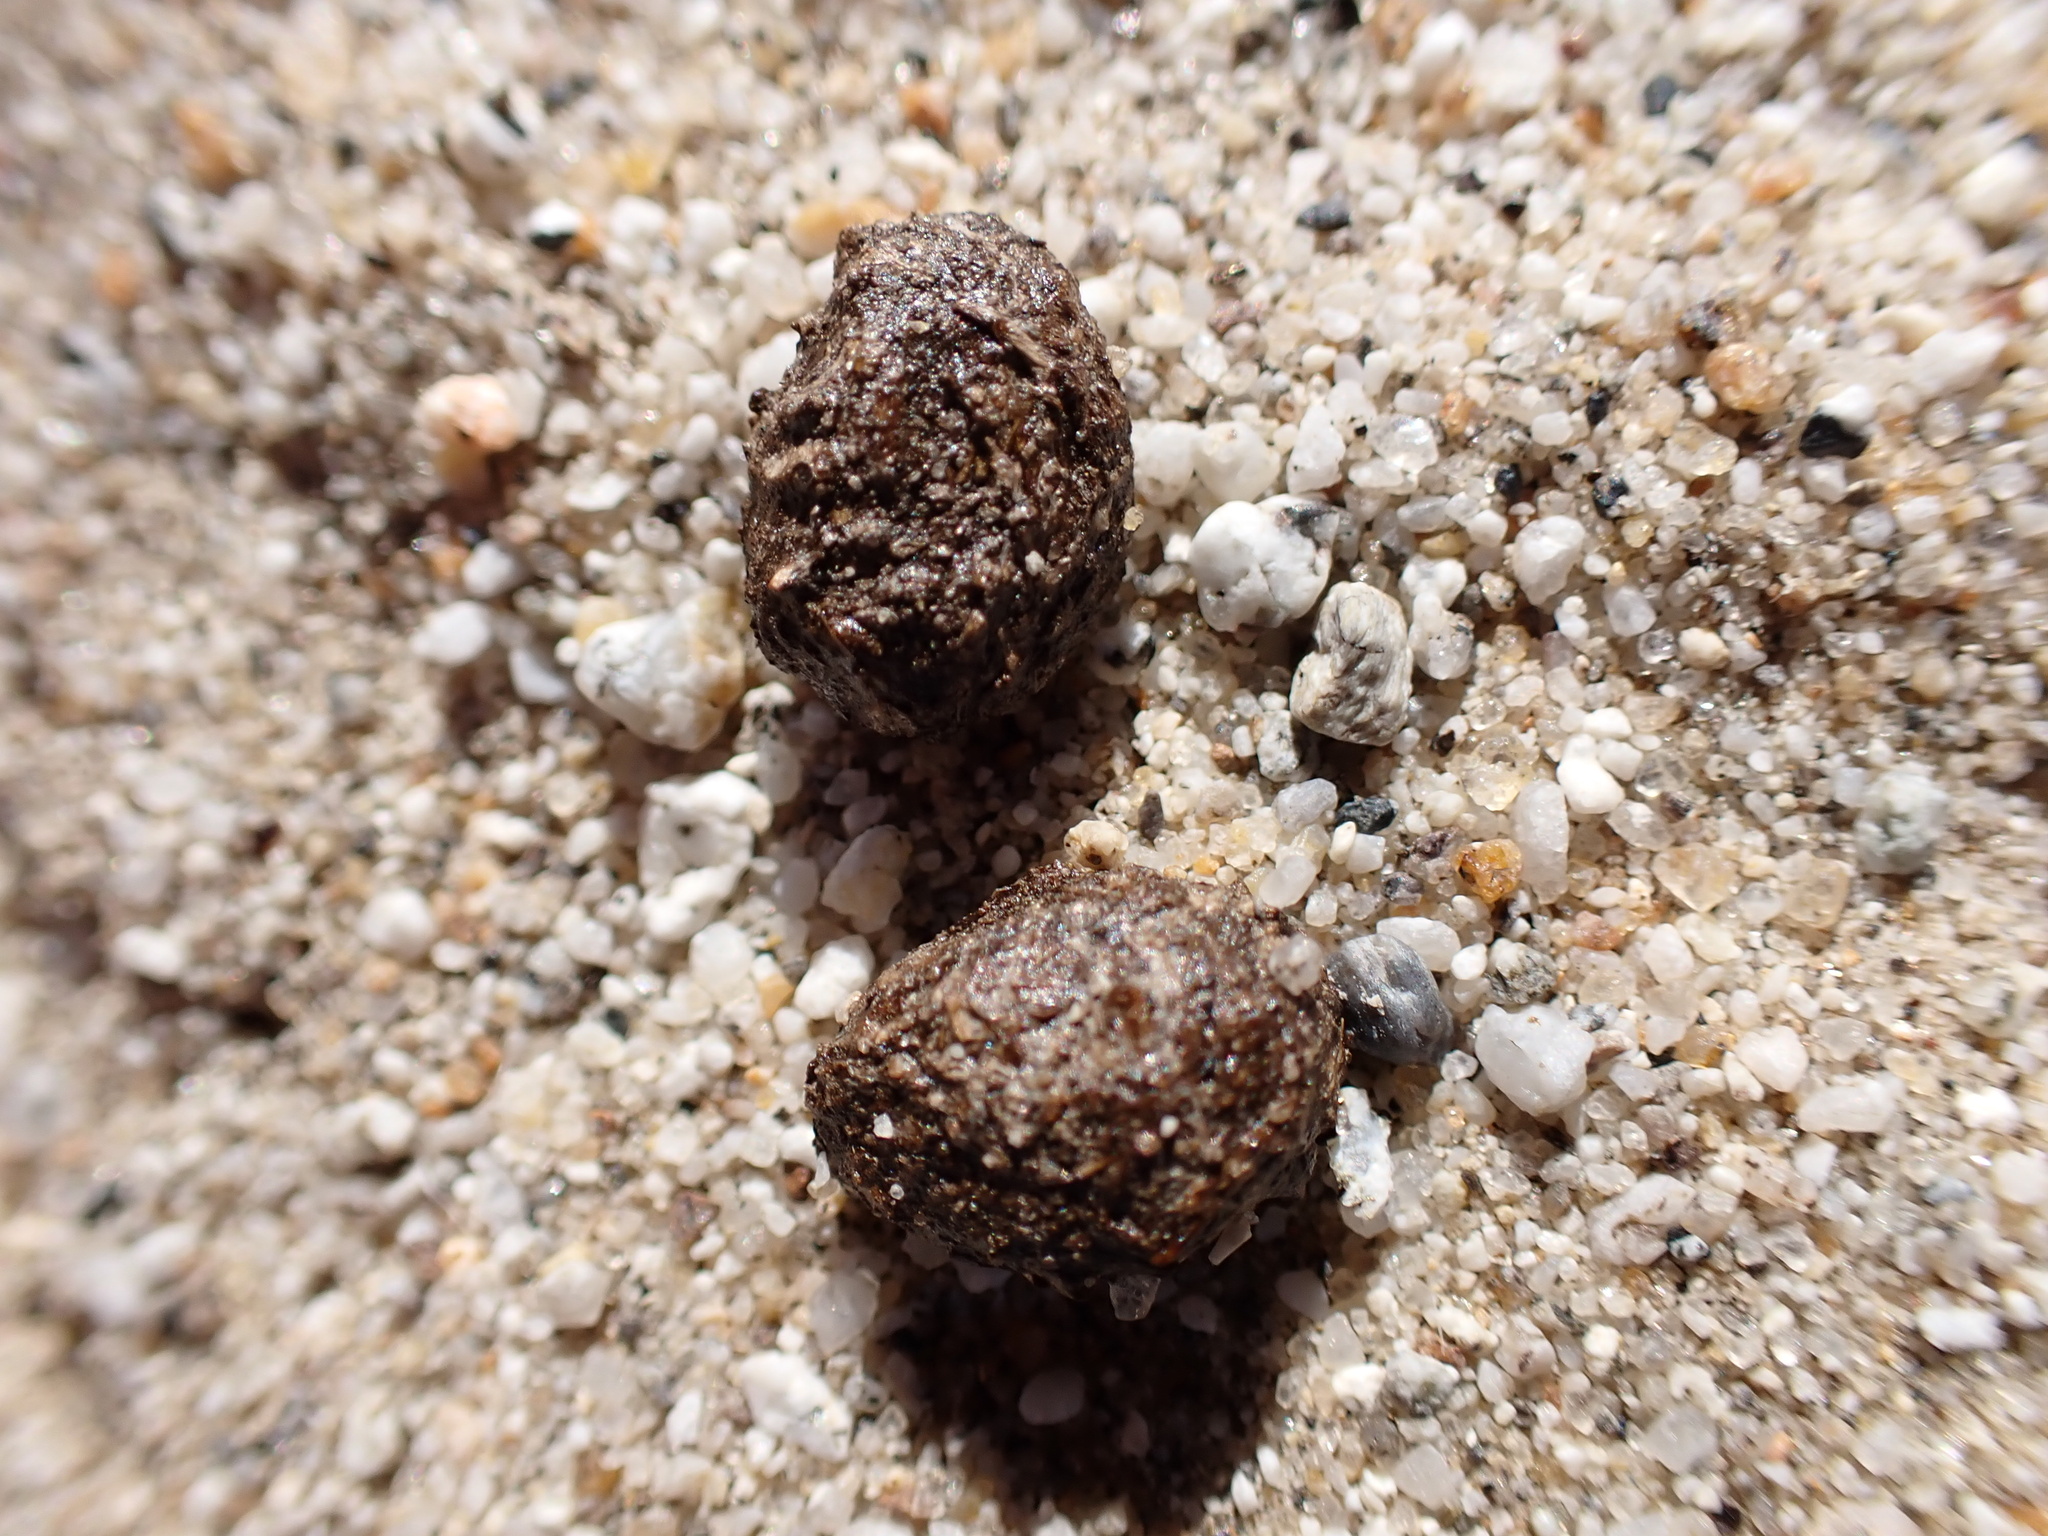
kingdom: Animalia
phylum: Chordata
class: Mammalia
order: Carnivora
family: Canidae
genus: Vulpes
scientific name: Vulpes macrotis
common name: Kit fox
